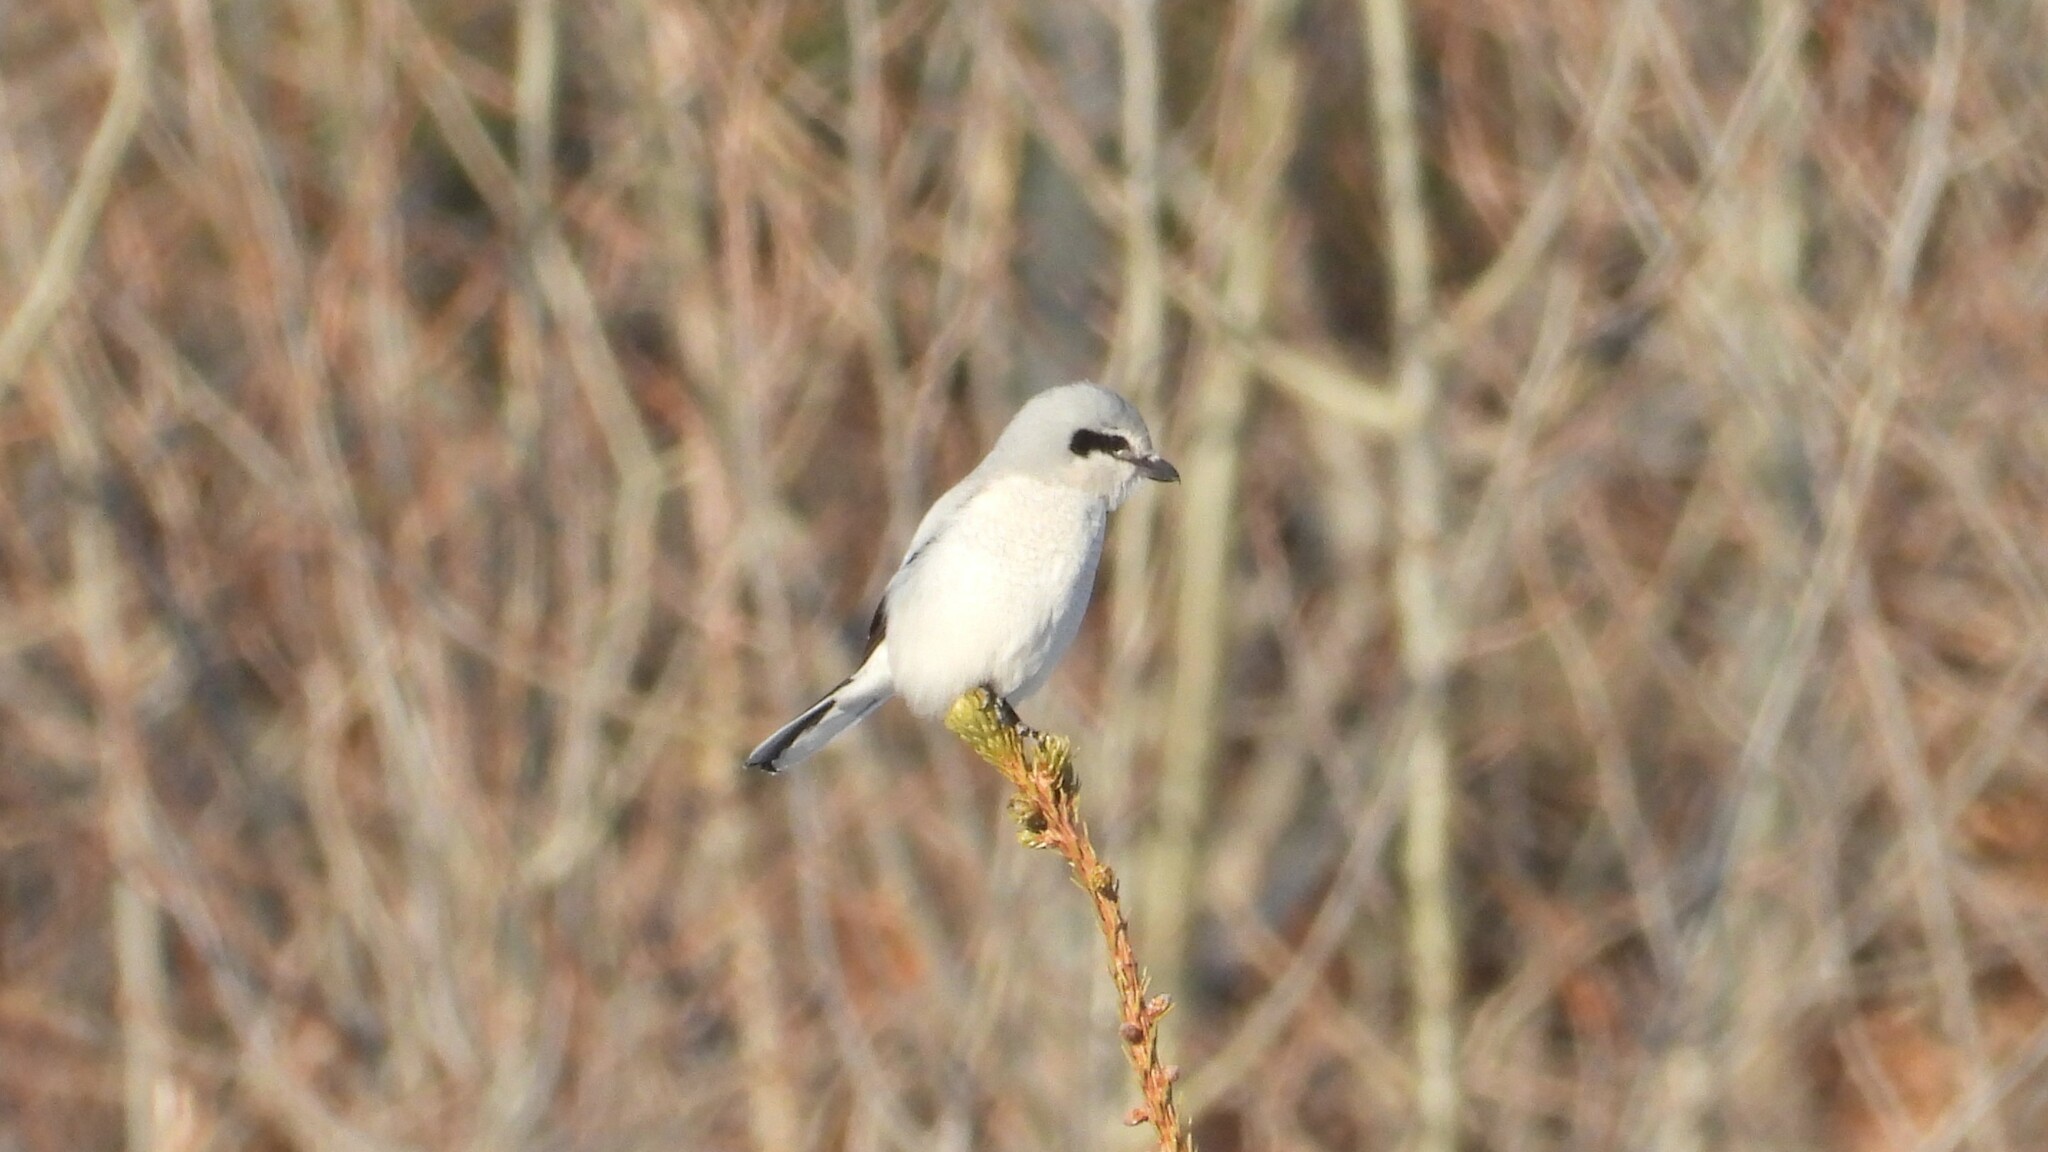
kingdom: Animalia
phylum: Chordata
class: Aves
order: Passeriformes
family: Laniidae
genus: Lanius
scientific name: Lanius borealis
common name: Northern shrike
